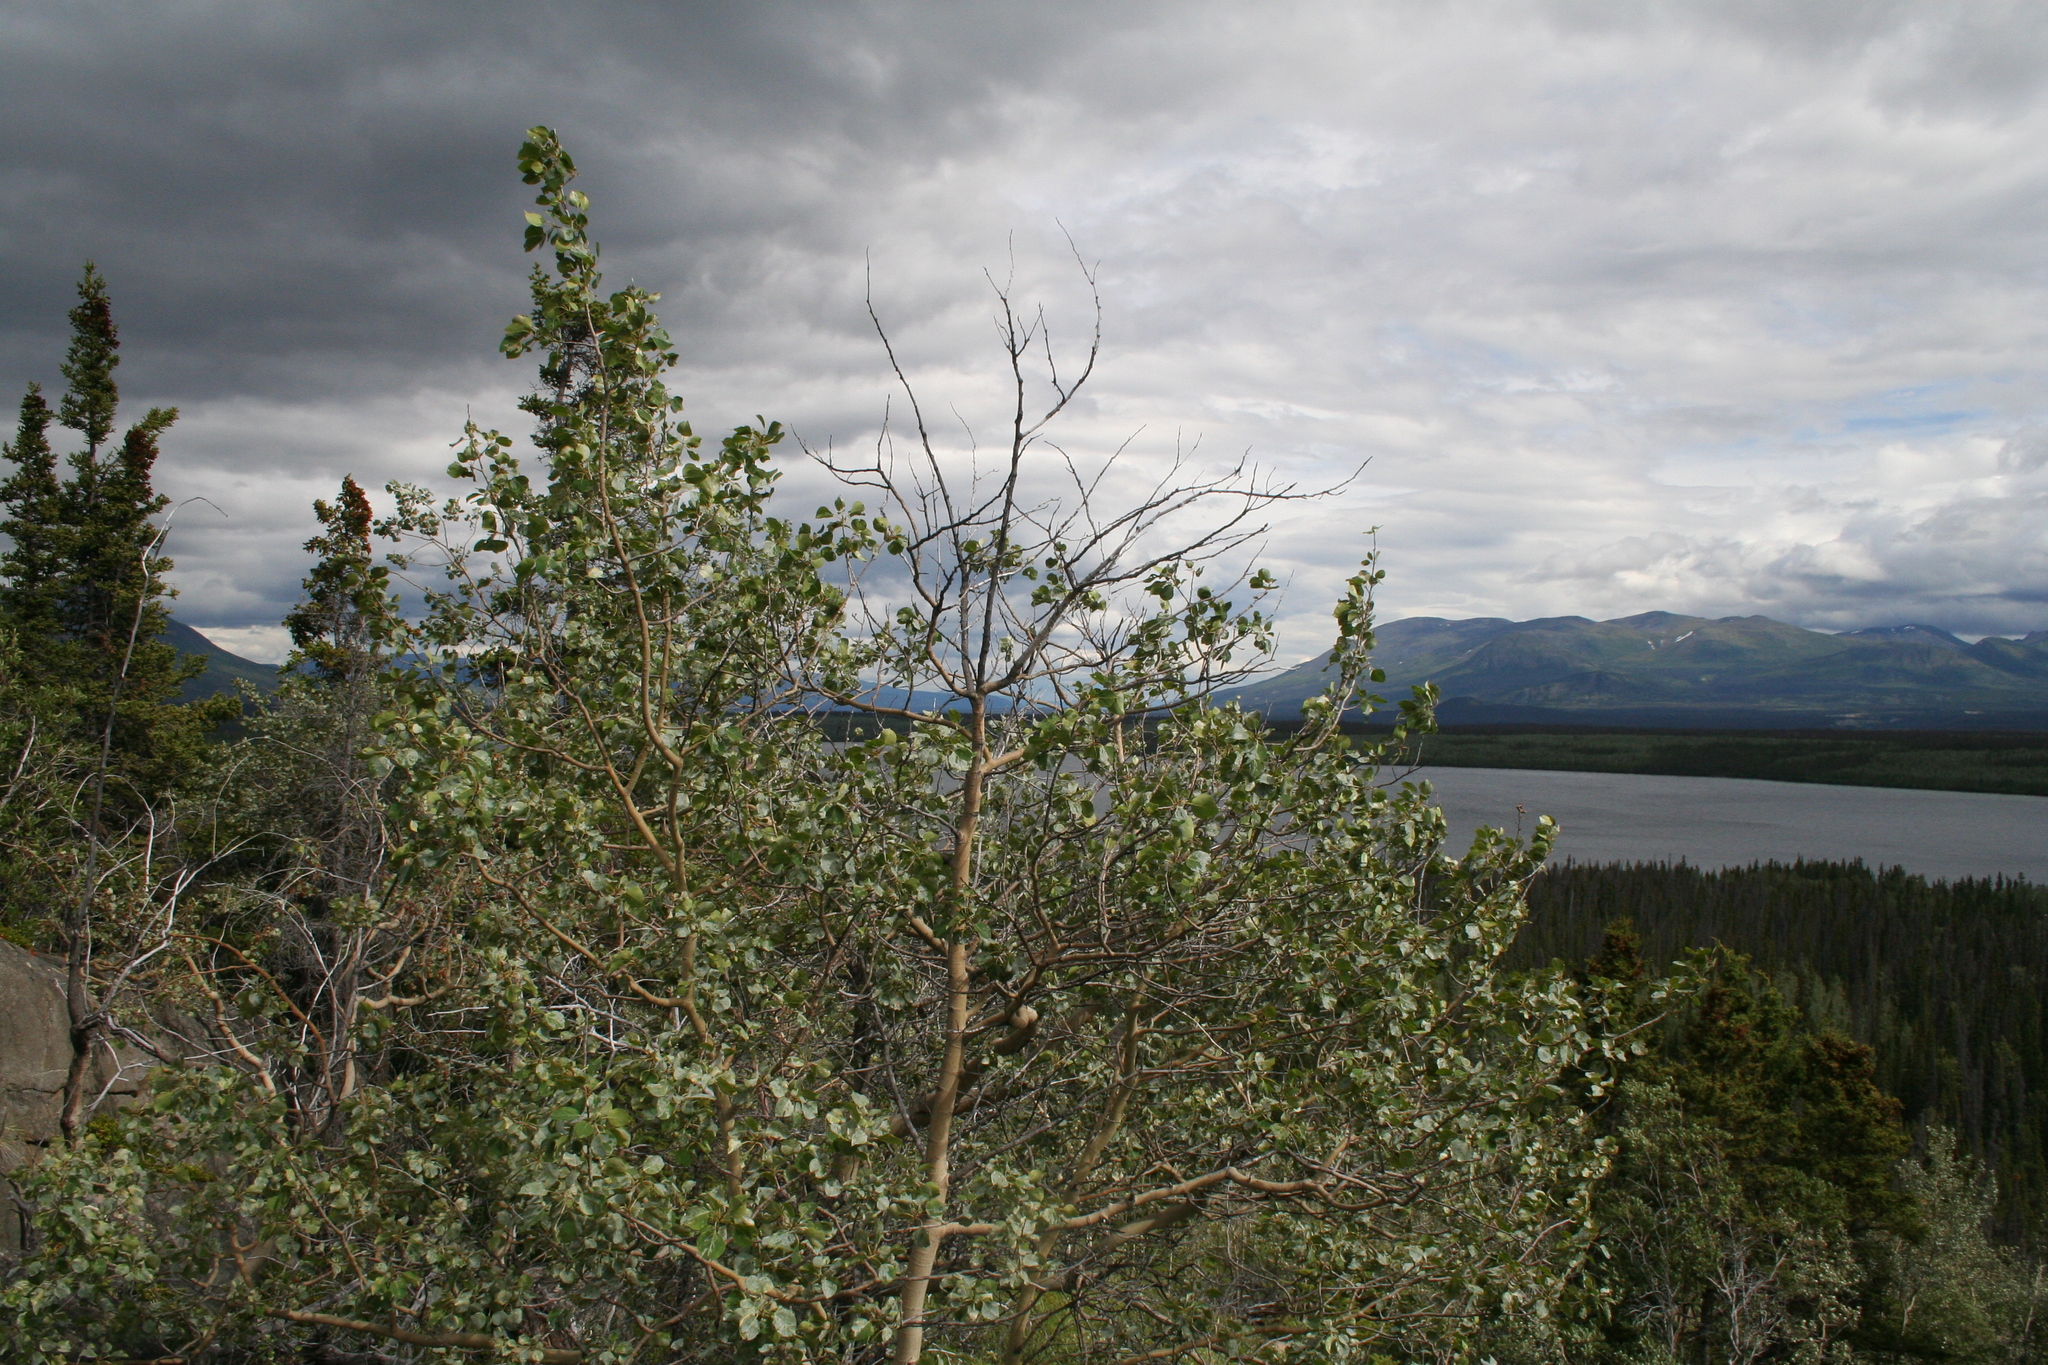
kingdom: Plantae
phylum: Tracheophyta
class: Magnoliopsida
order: Malpighiales
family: Salicaceae
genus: Populus
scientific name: Populus tremuloides
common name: Quaking aspen
